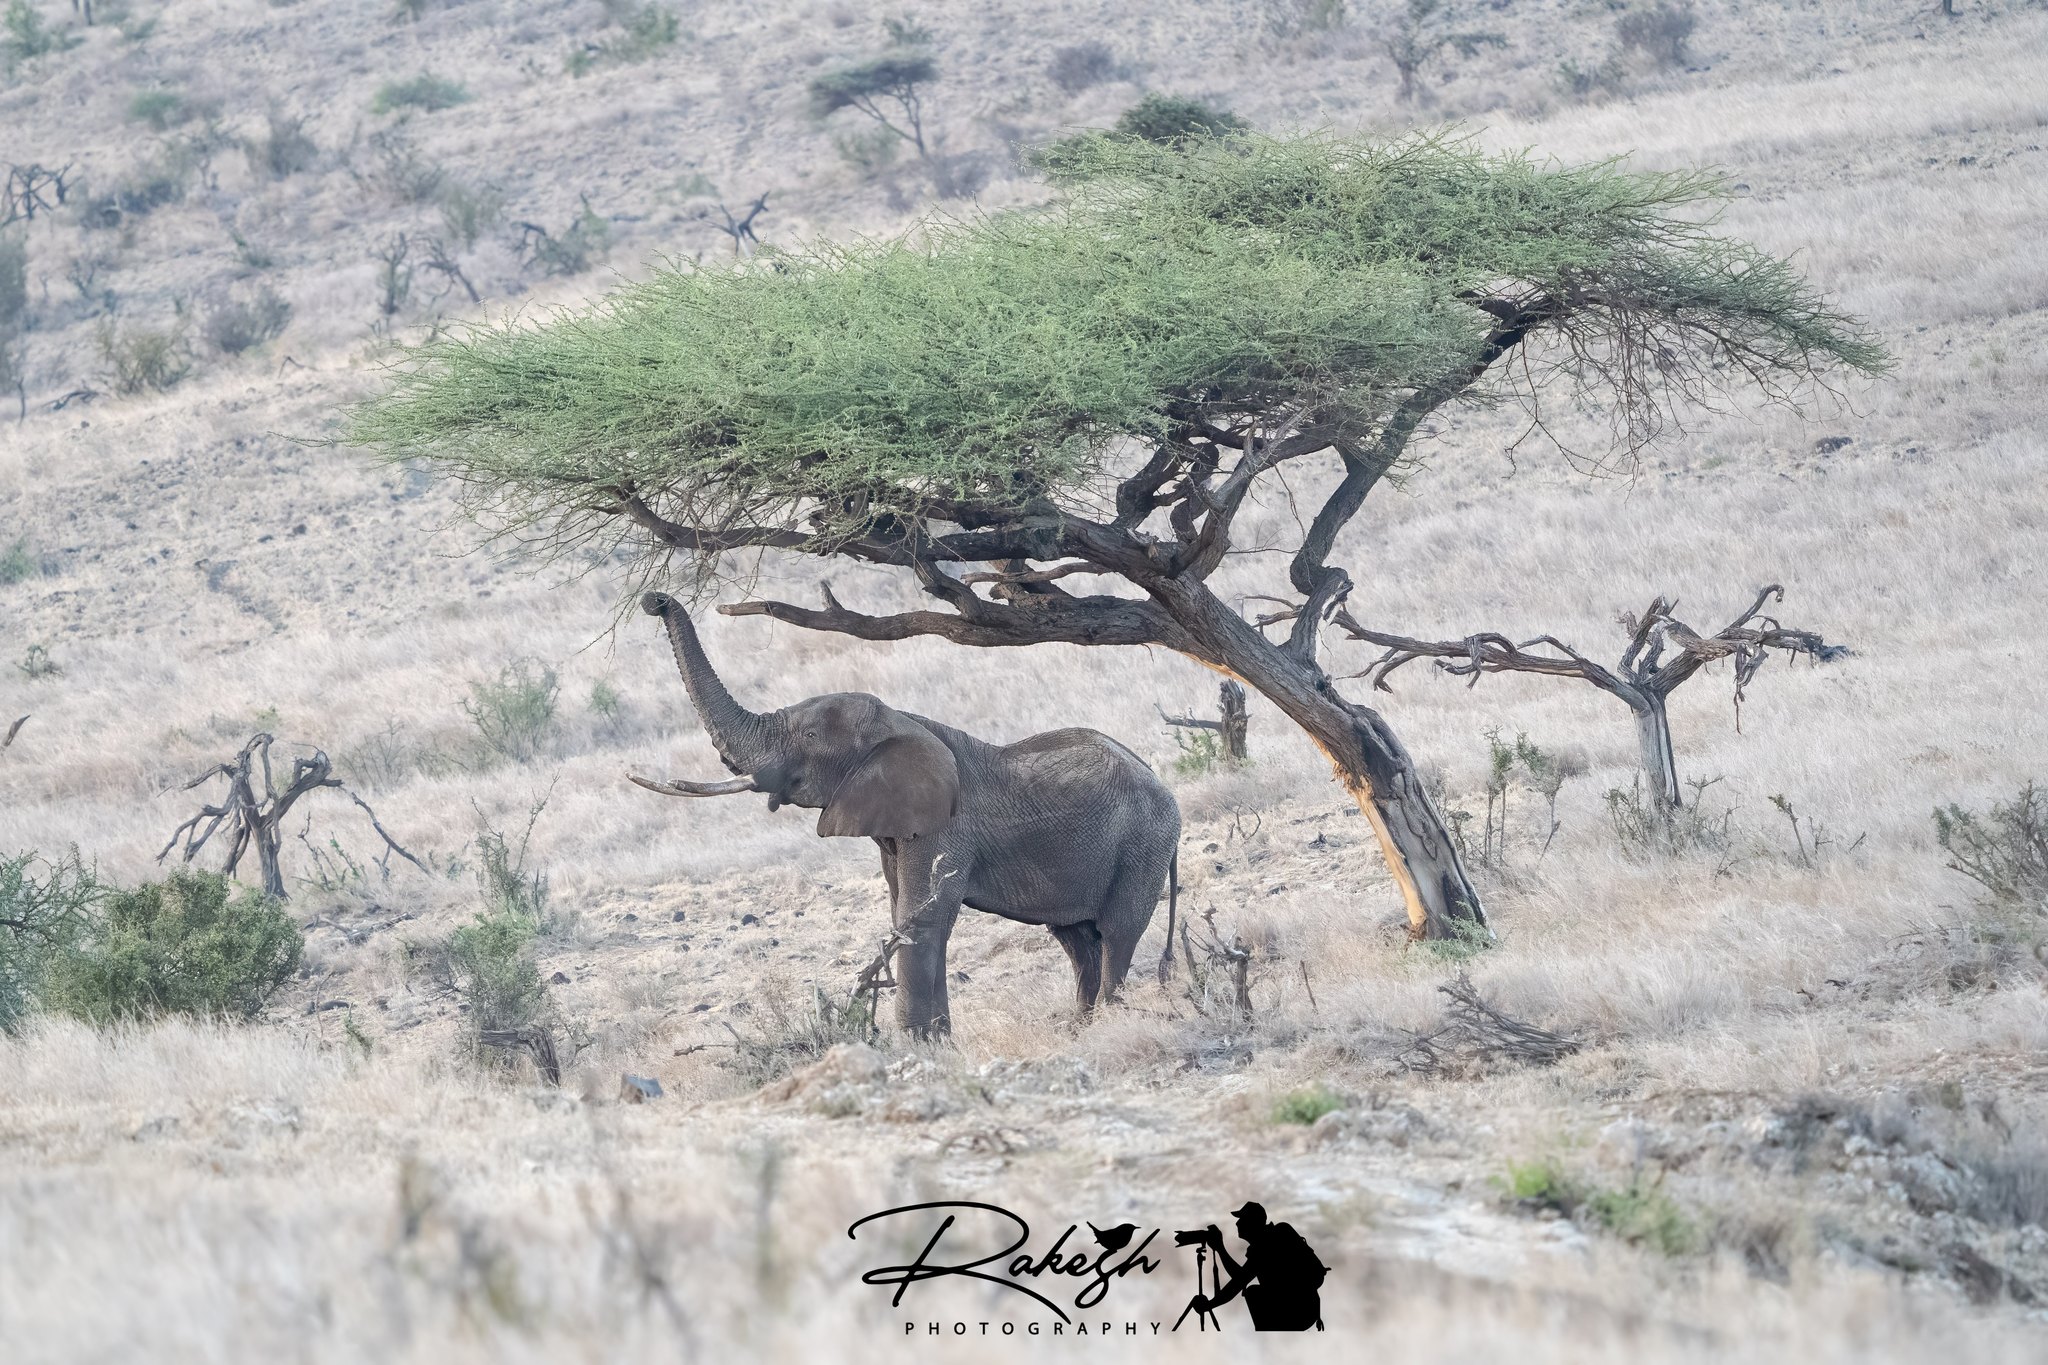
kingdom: Animalia
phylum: Chordata
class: Mammalia
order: Proboscidea
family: Elephantidae
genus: Loxodonta
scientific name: Loxodonta africana
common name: African elephant
